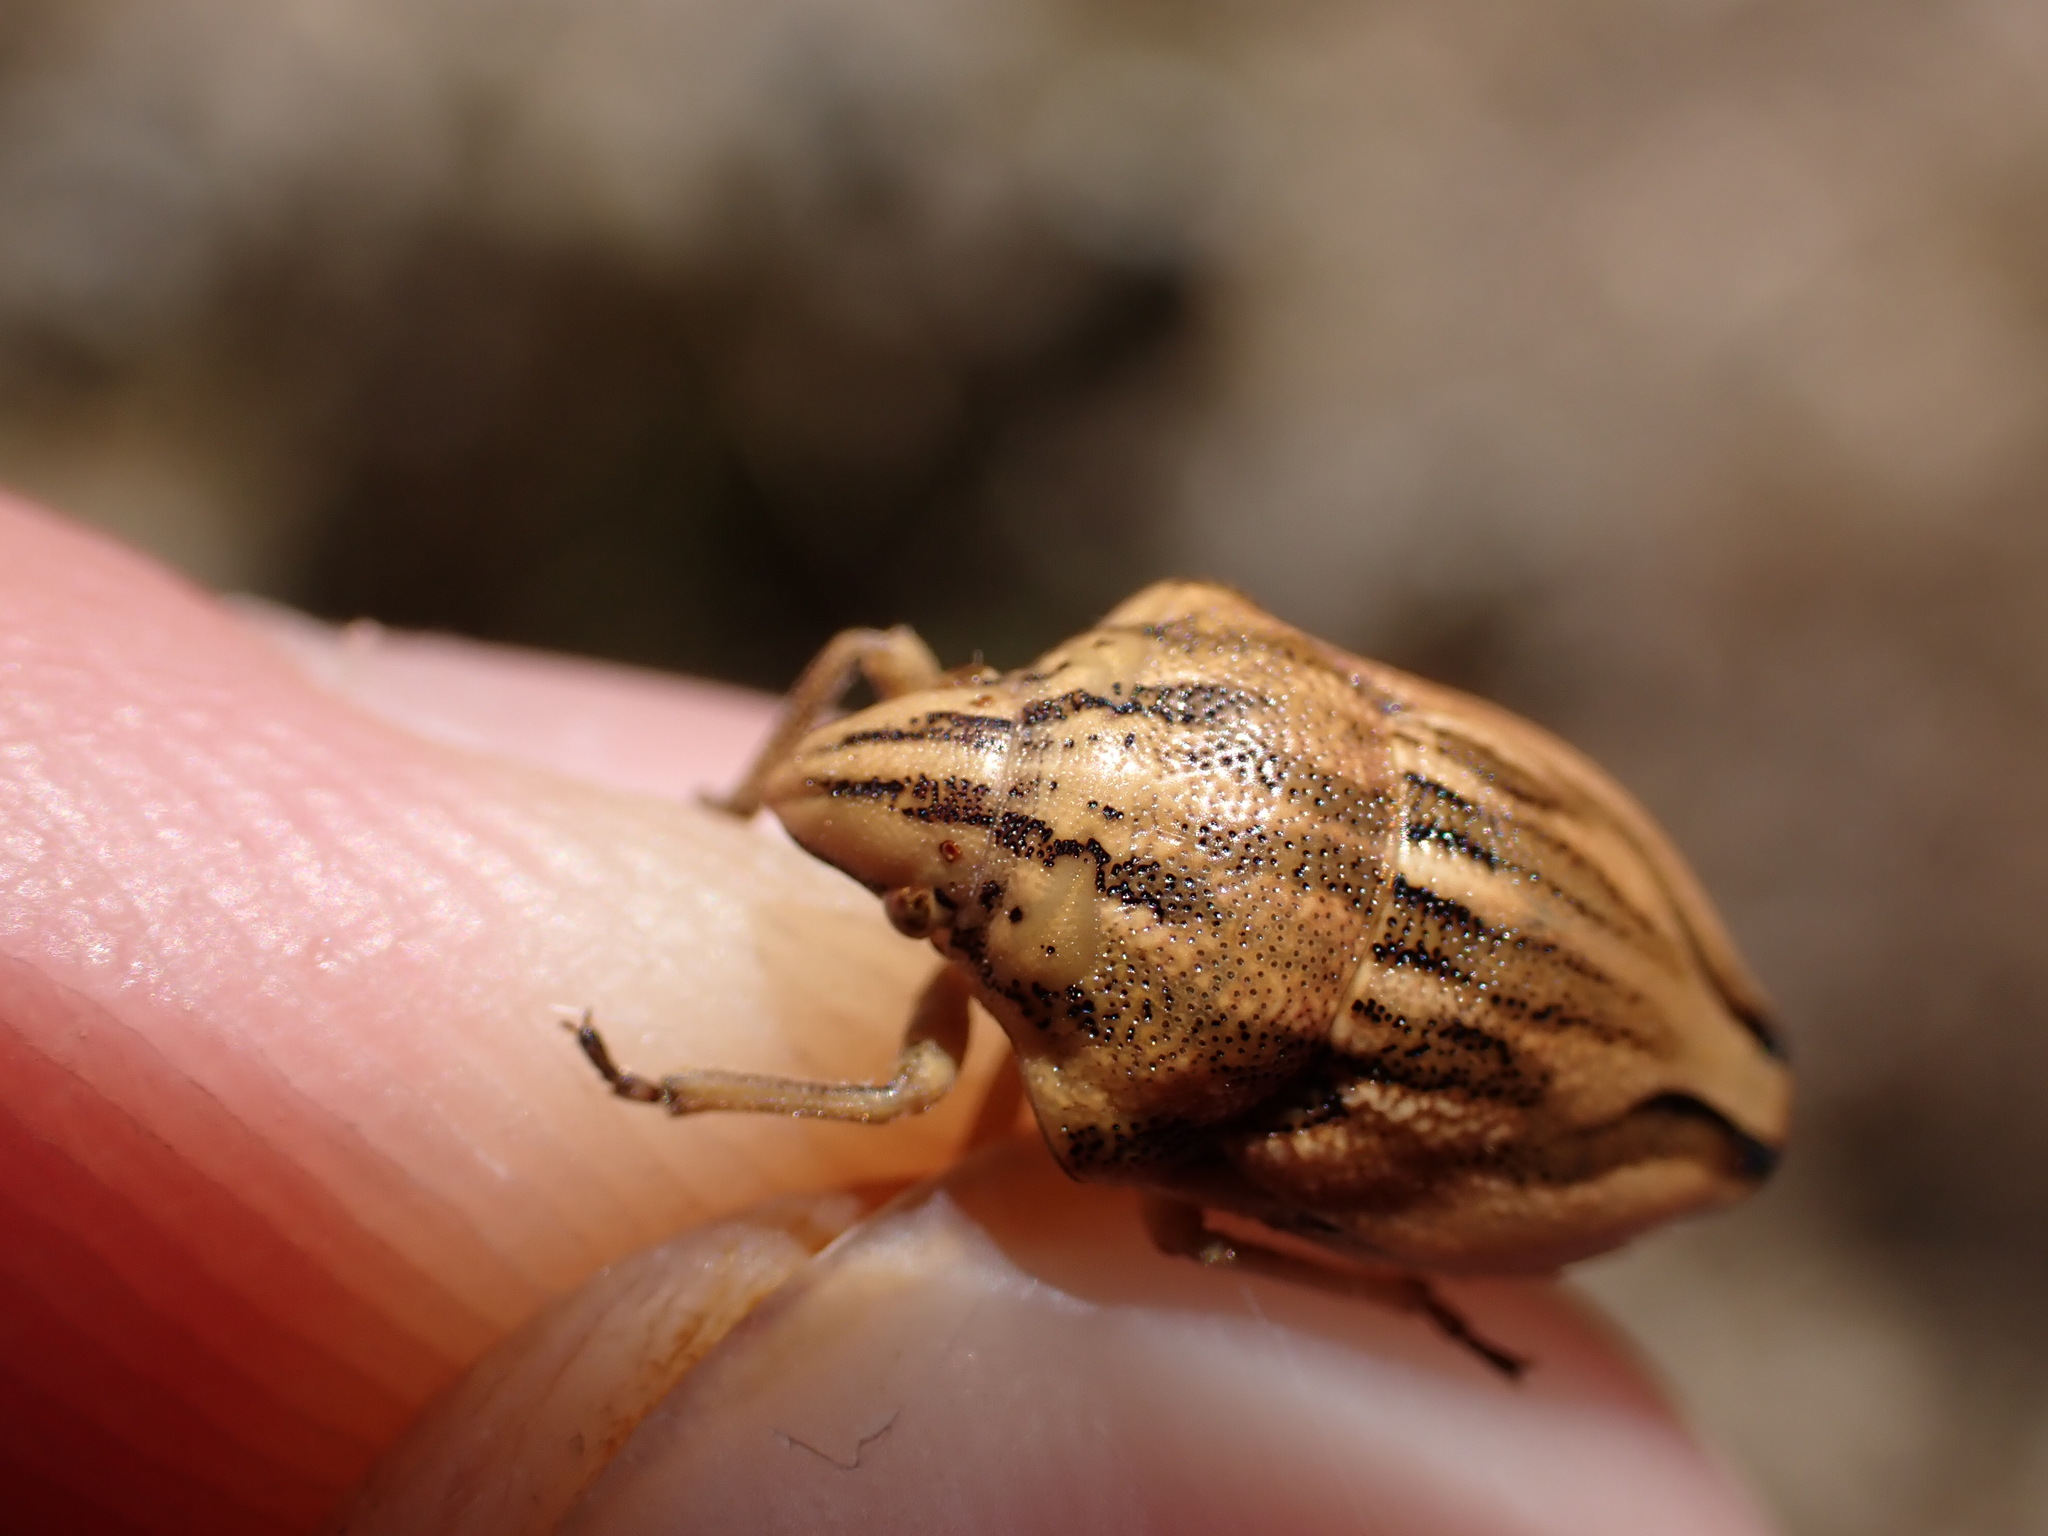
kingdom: Animalia
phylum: Arthropoda
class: Insecta
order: Hemiptera
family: Scutelleridae
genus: Odontotarsus
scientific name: Odontotarsus purpureolineatus
